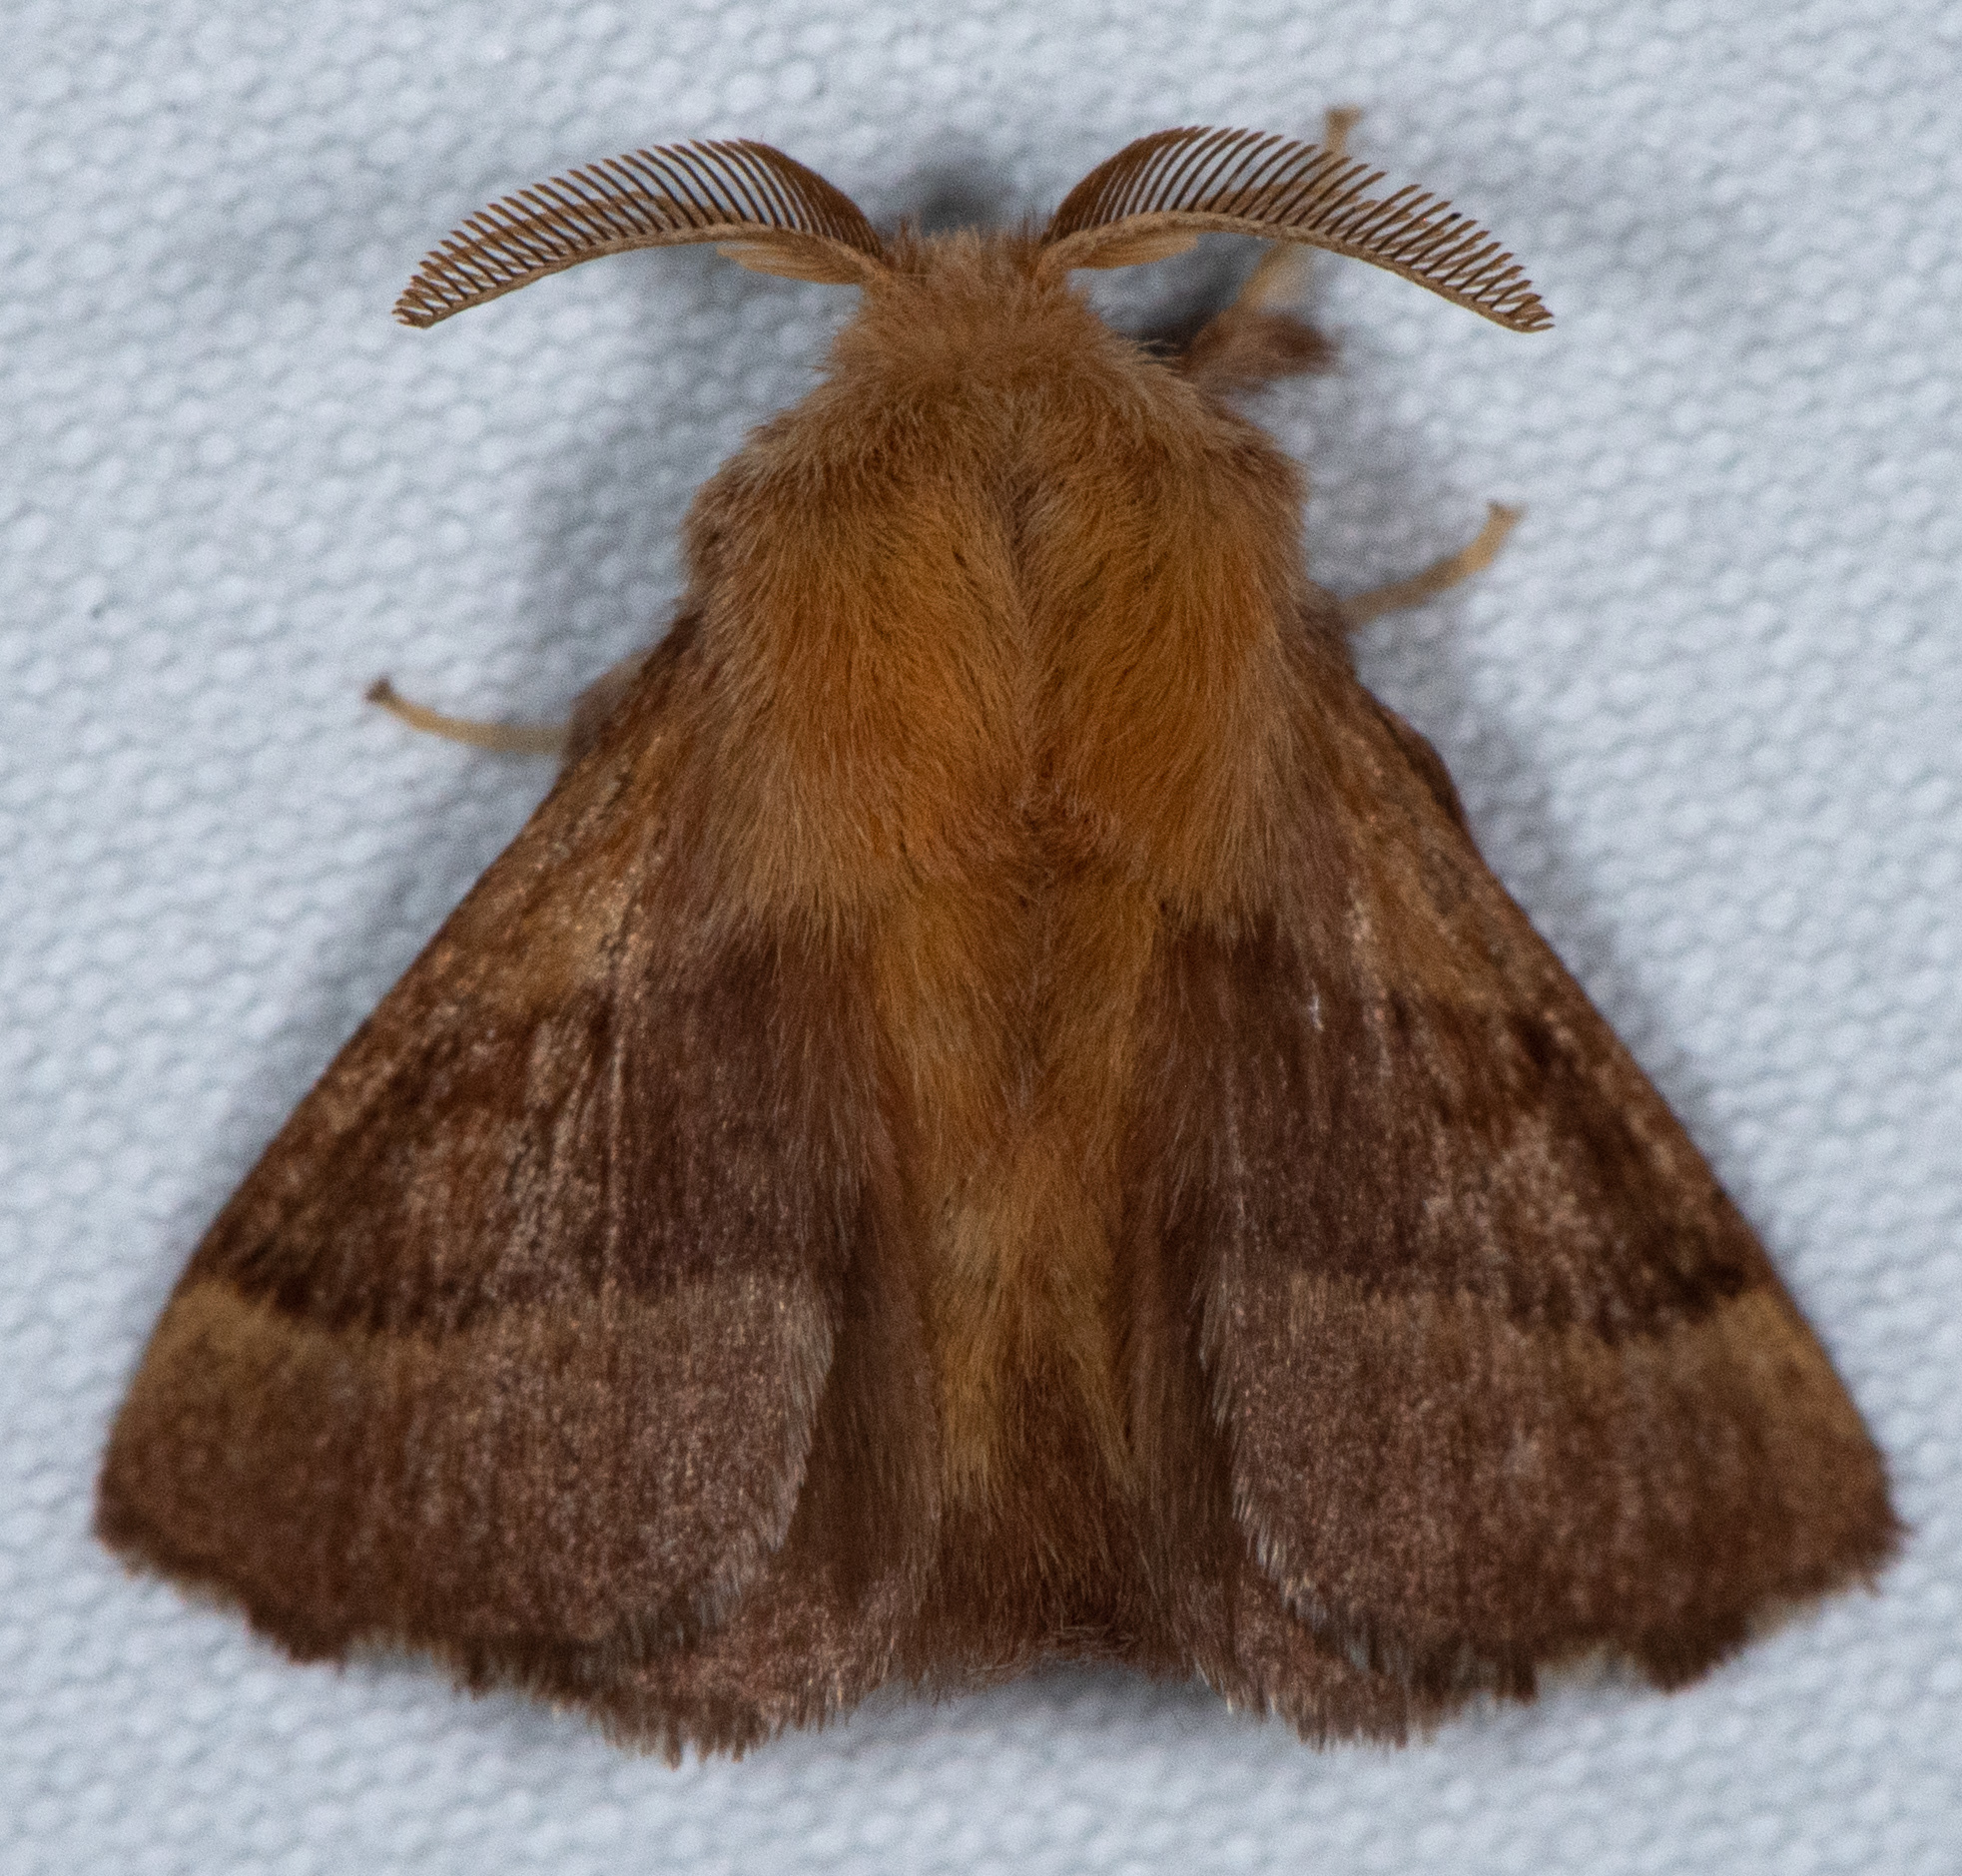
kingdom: Animalia
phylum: Arthropoda
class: Insecta
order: Lepidoptera
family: Lasiocampidae
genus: Malacosoma
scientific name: Malacosoma californica
